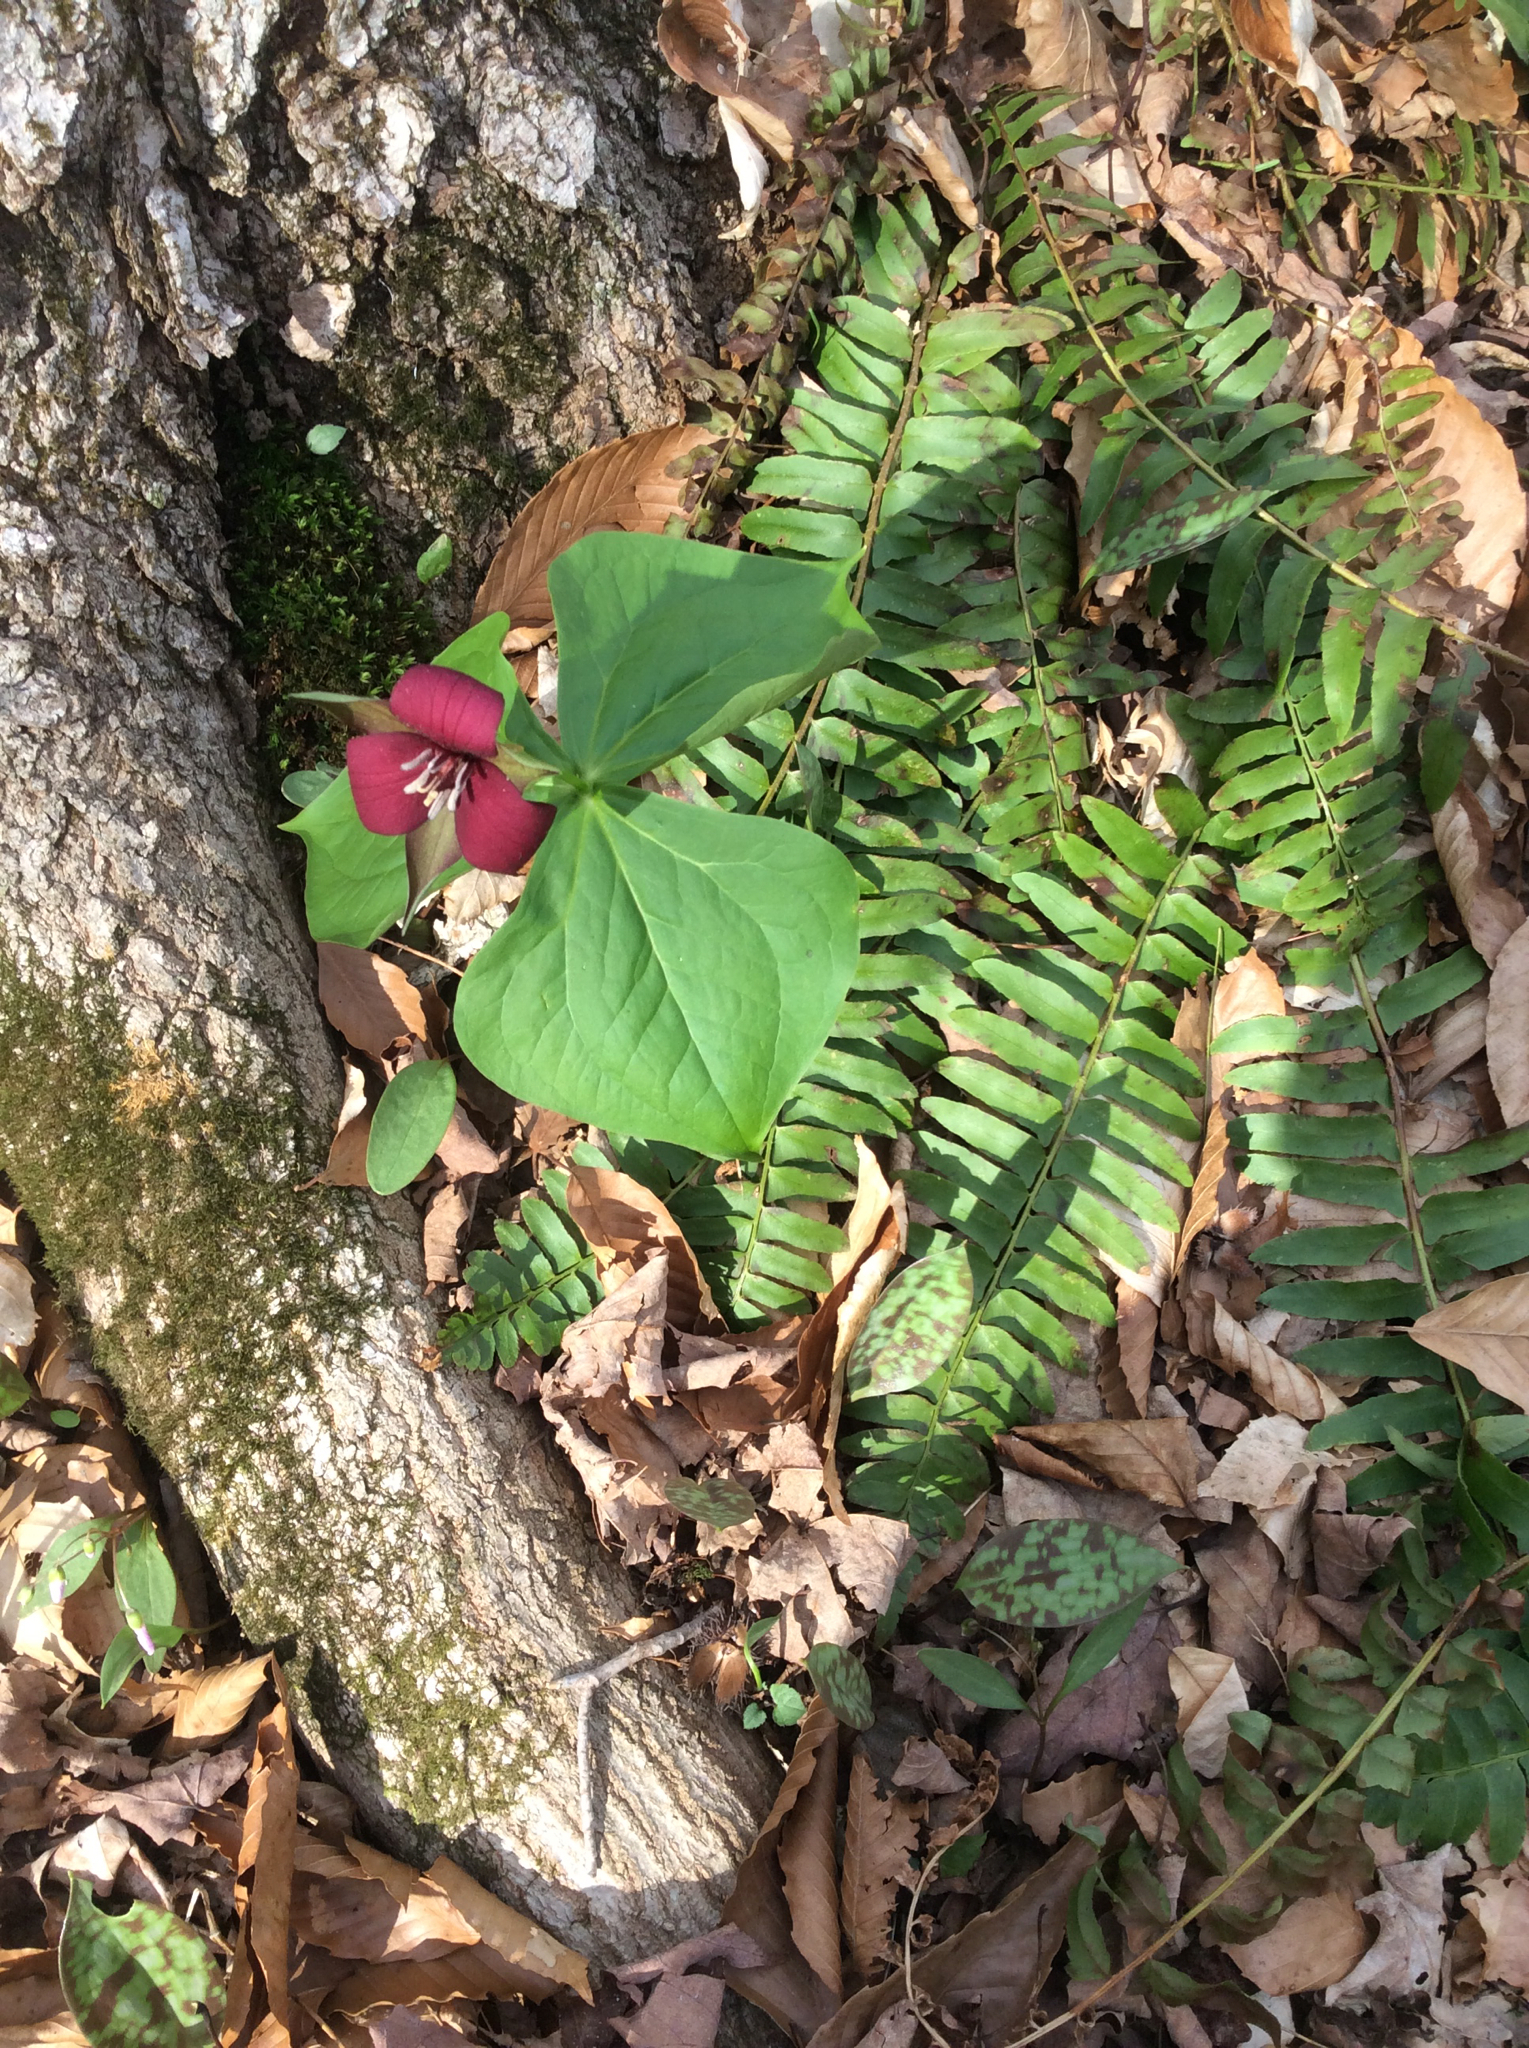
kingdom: Plantae
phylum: Tracheophyta
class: Liliopsida
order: Liliales
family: Melanthiaceae
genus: Trillium
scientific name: Trillium erectum
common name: Purple trillium
